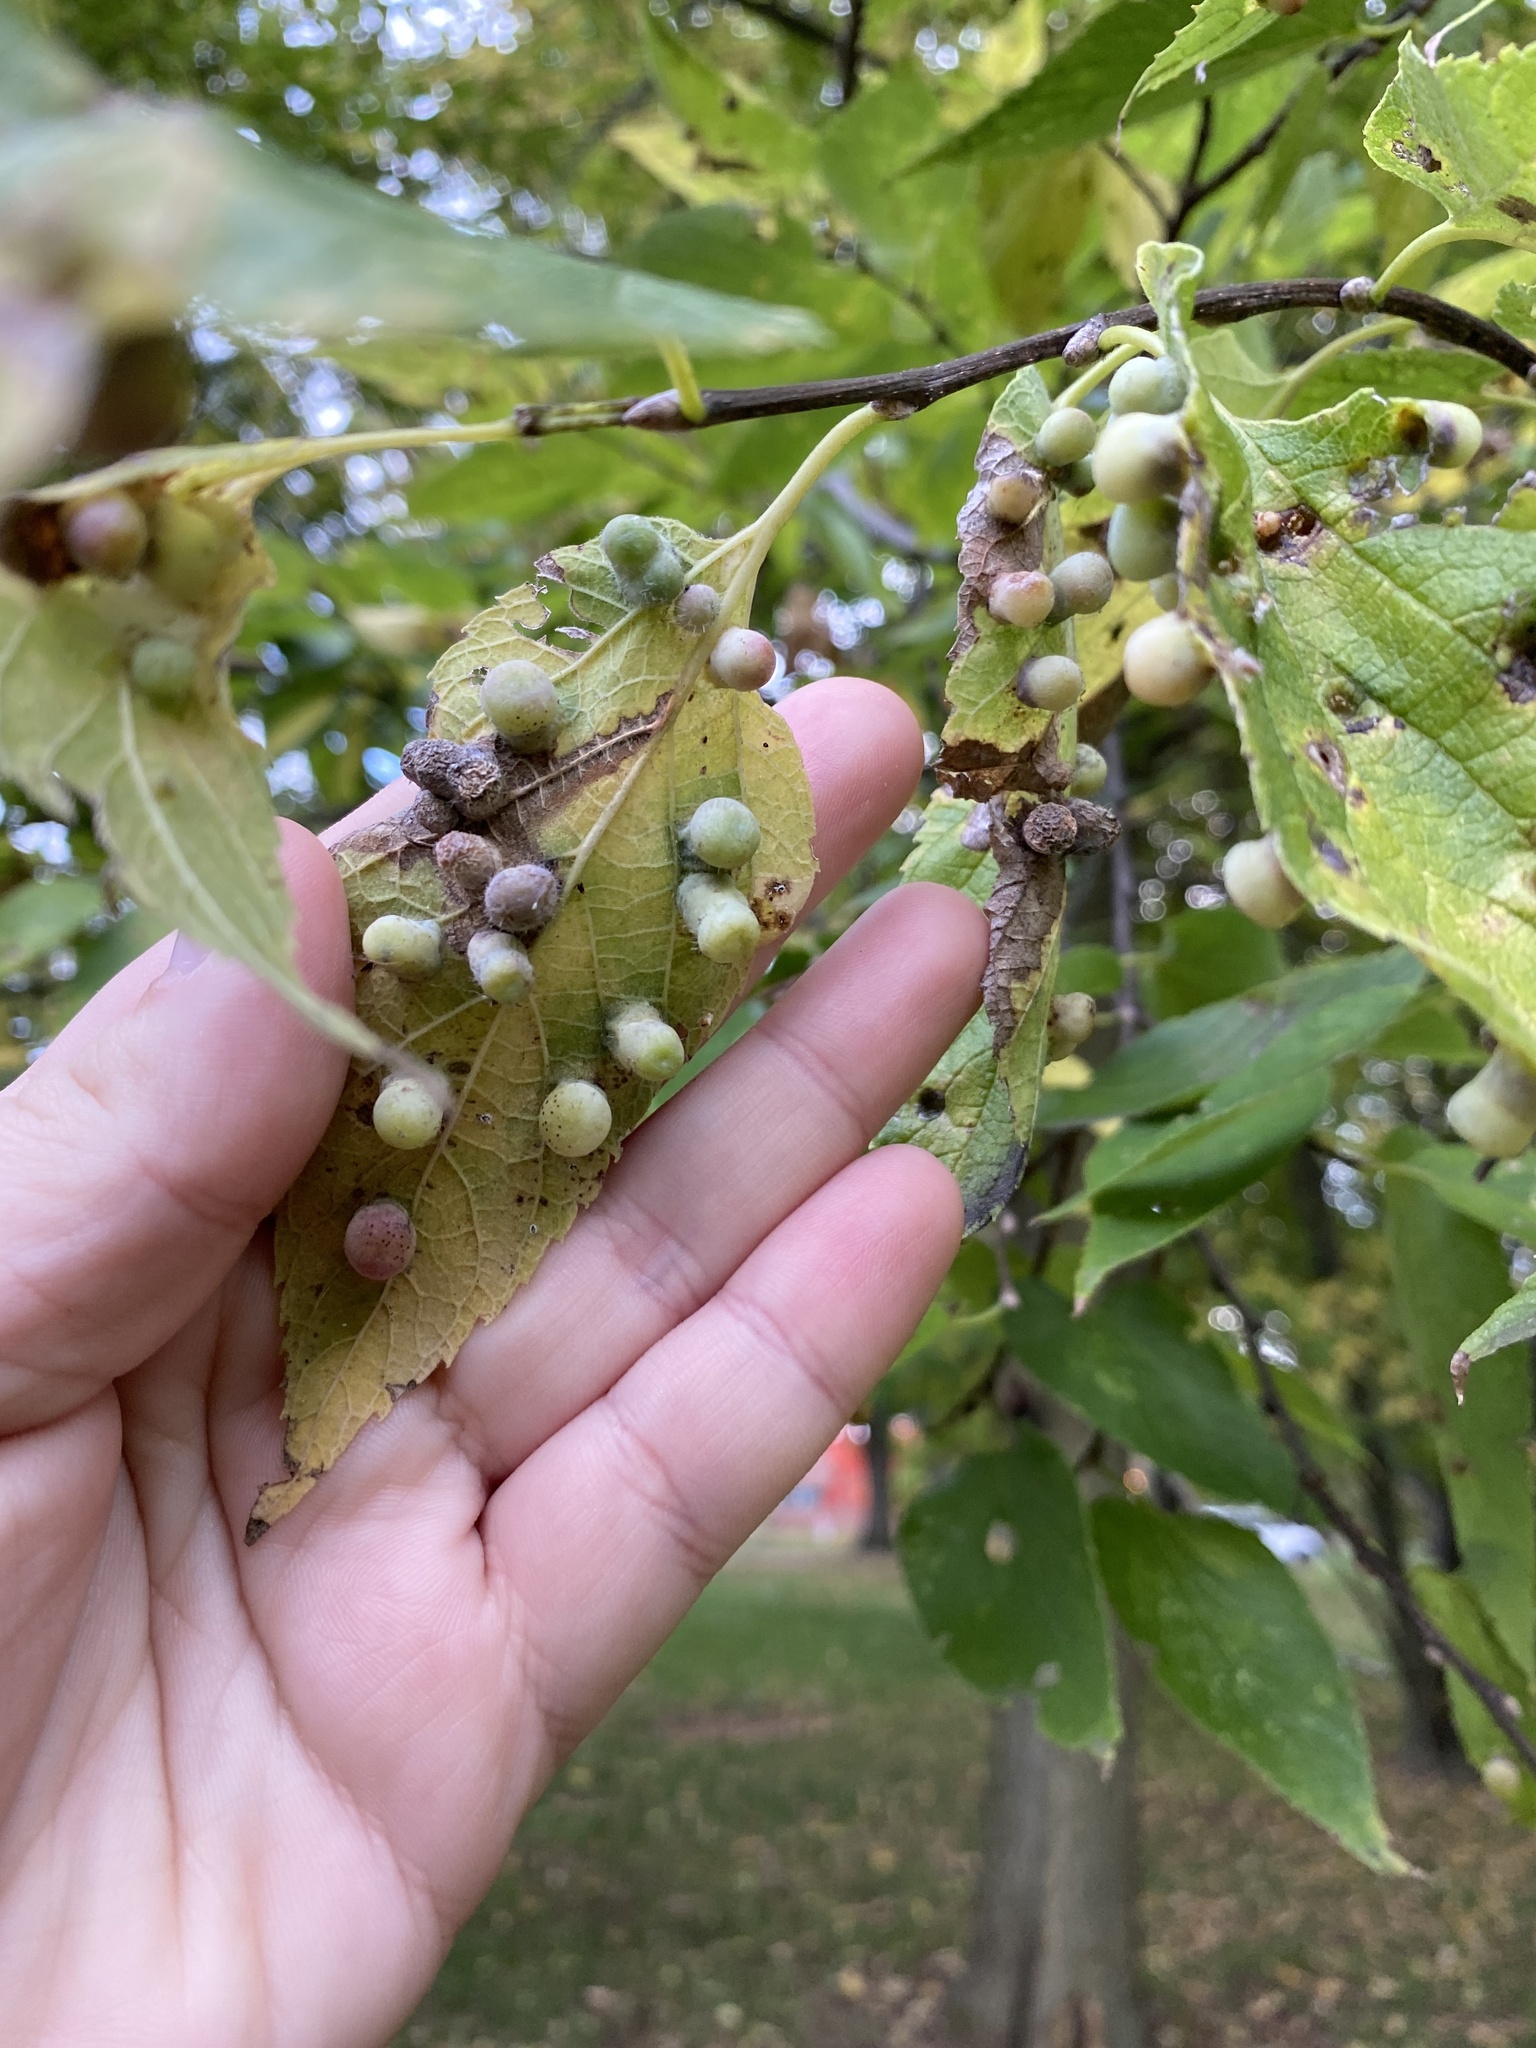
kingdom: Animalia
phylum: Arthropoda
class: Insecta
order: Hemiptera
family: Aphalaridae
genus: Pachypsylla
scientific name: Pachypsylla celtidismamma
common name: Hackberry nipplegall psyllid
